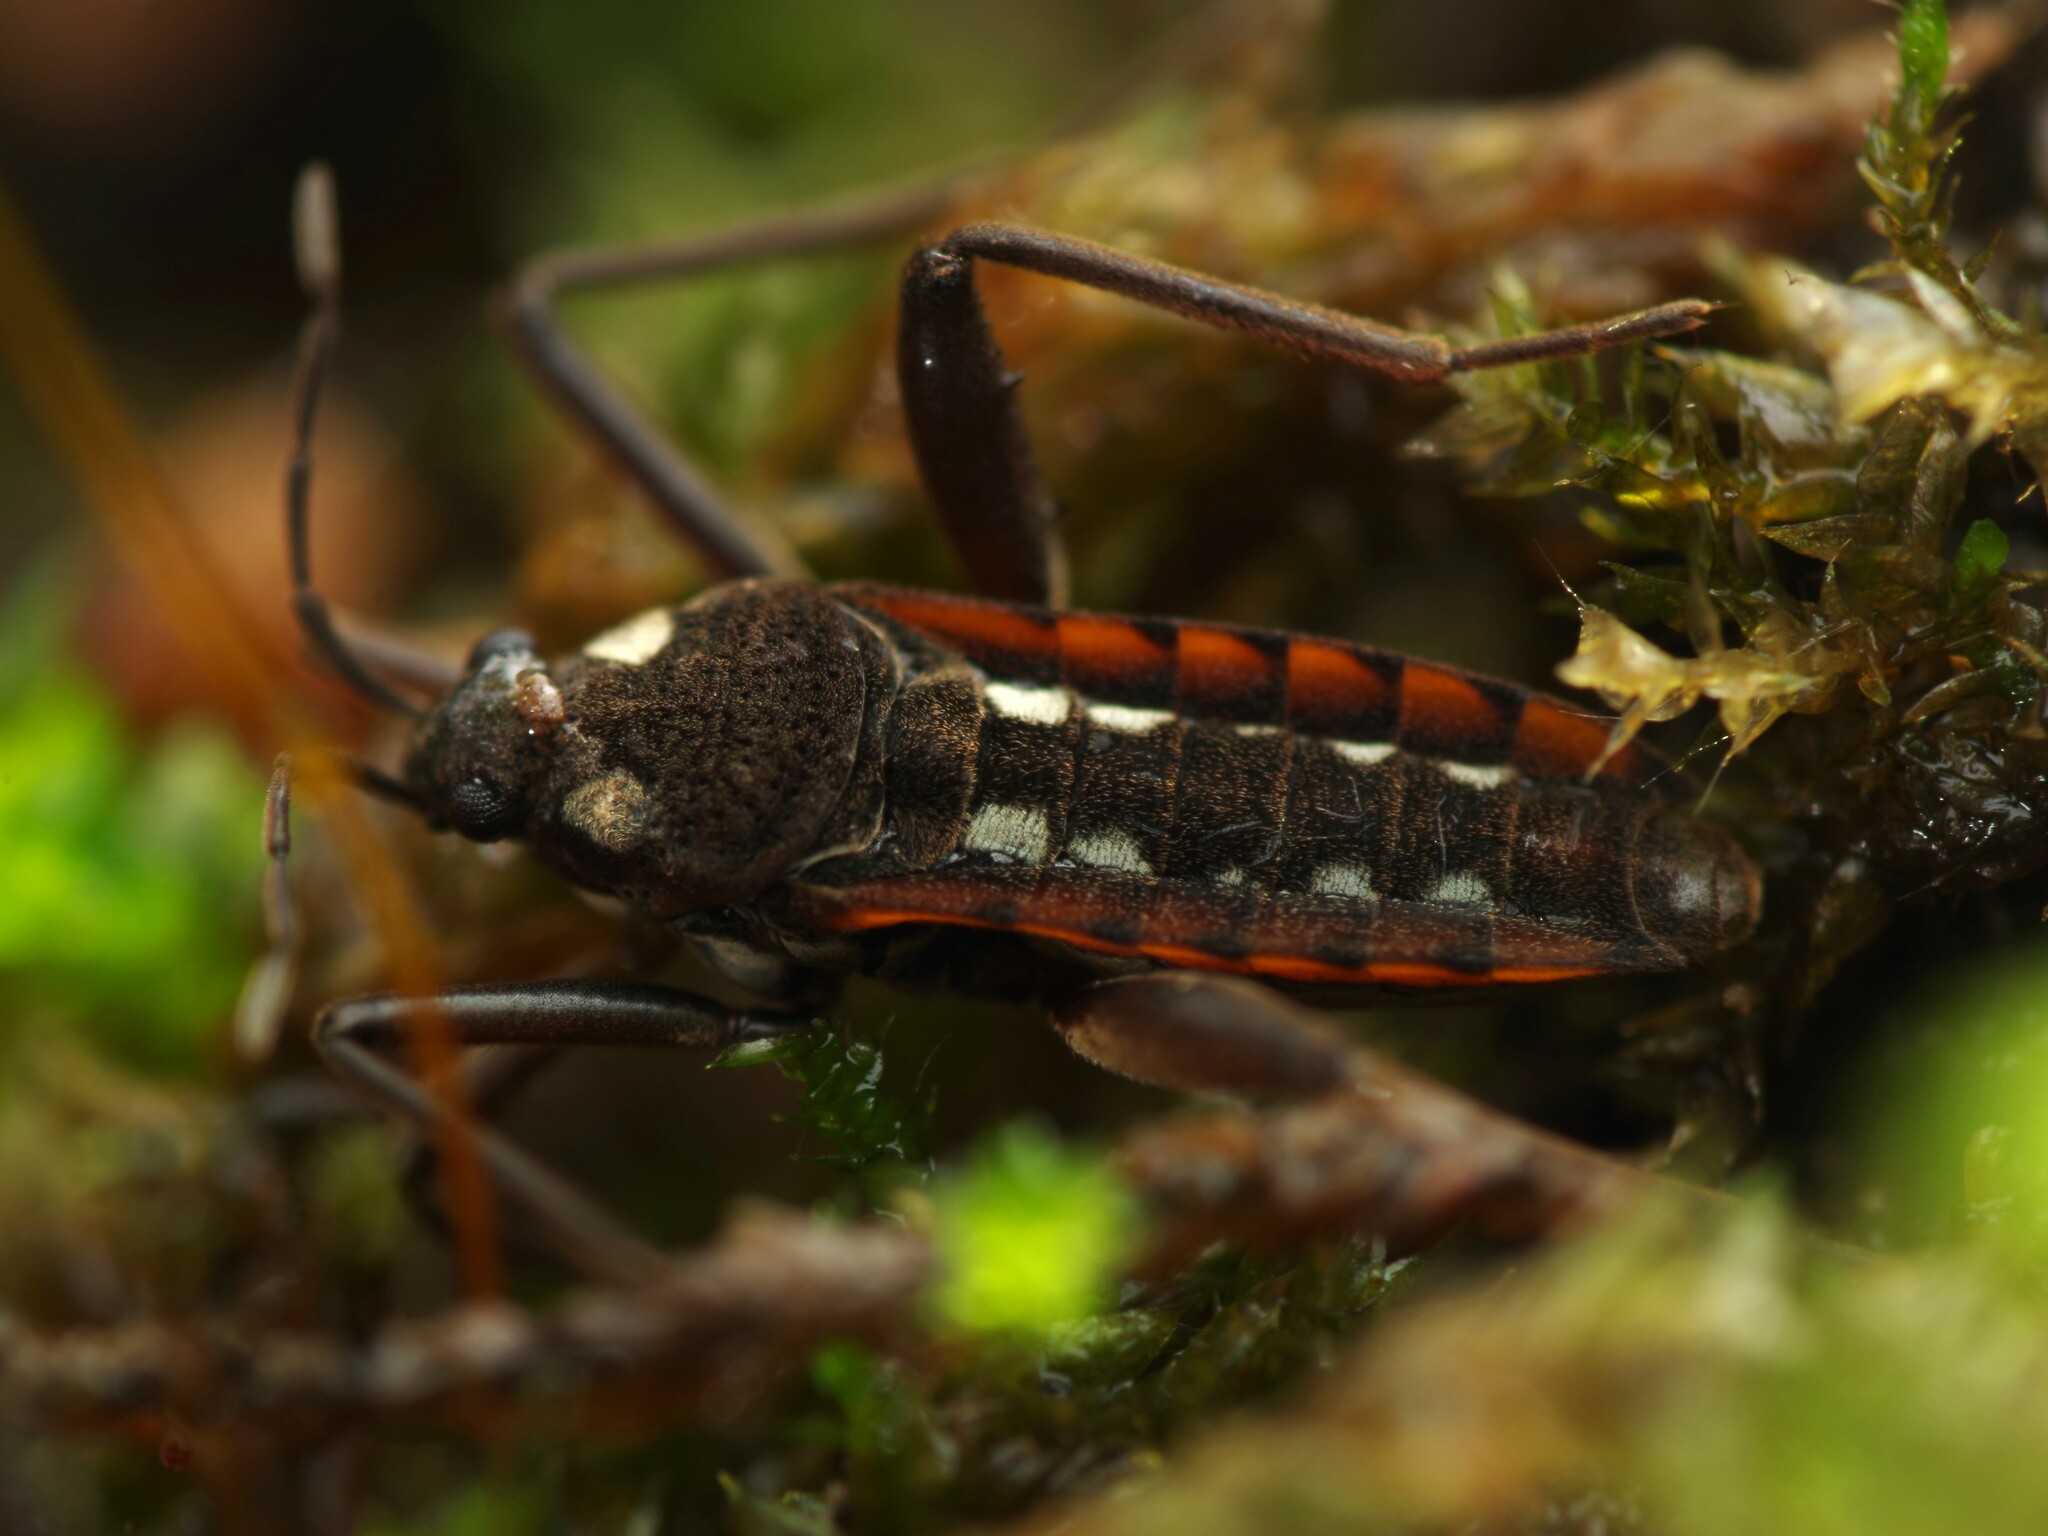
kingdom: Animalia
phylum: Arthropoda
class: Insecta
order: Hemiptera
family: Veliidae
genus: Velia
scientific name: Velia
